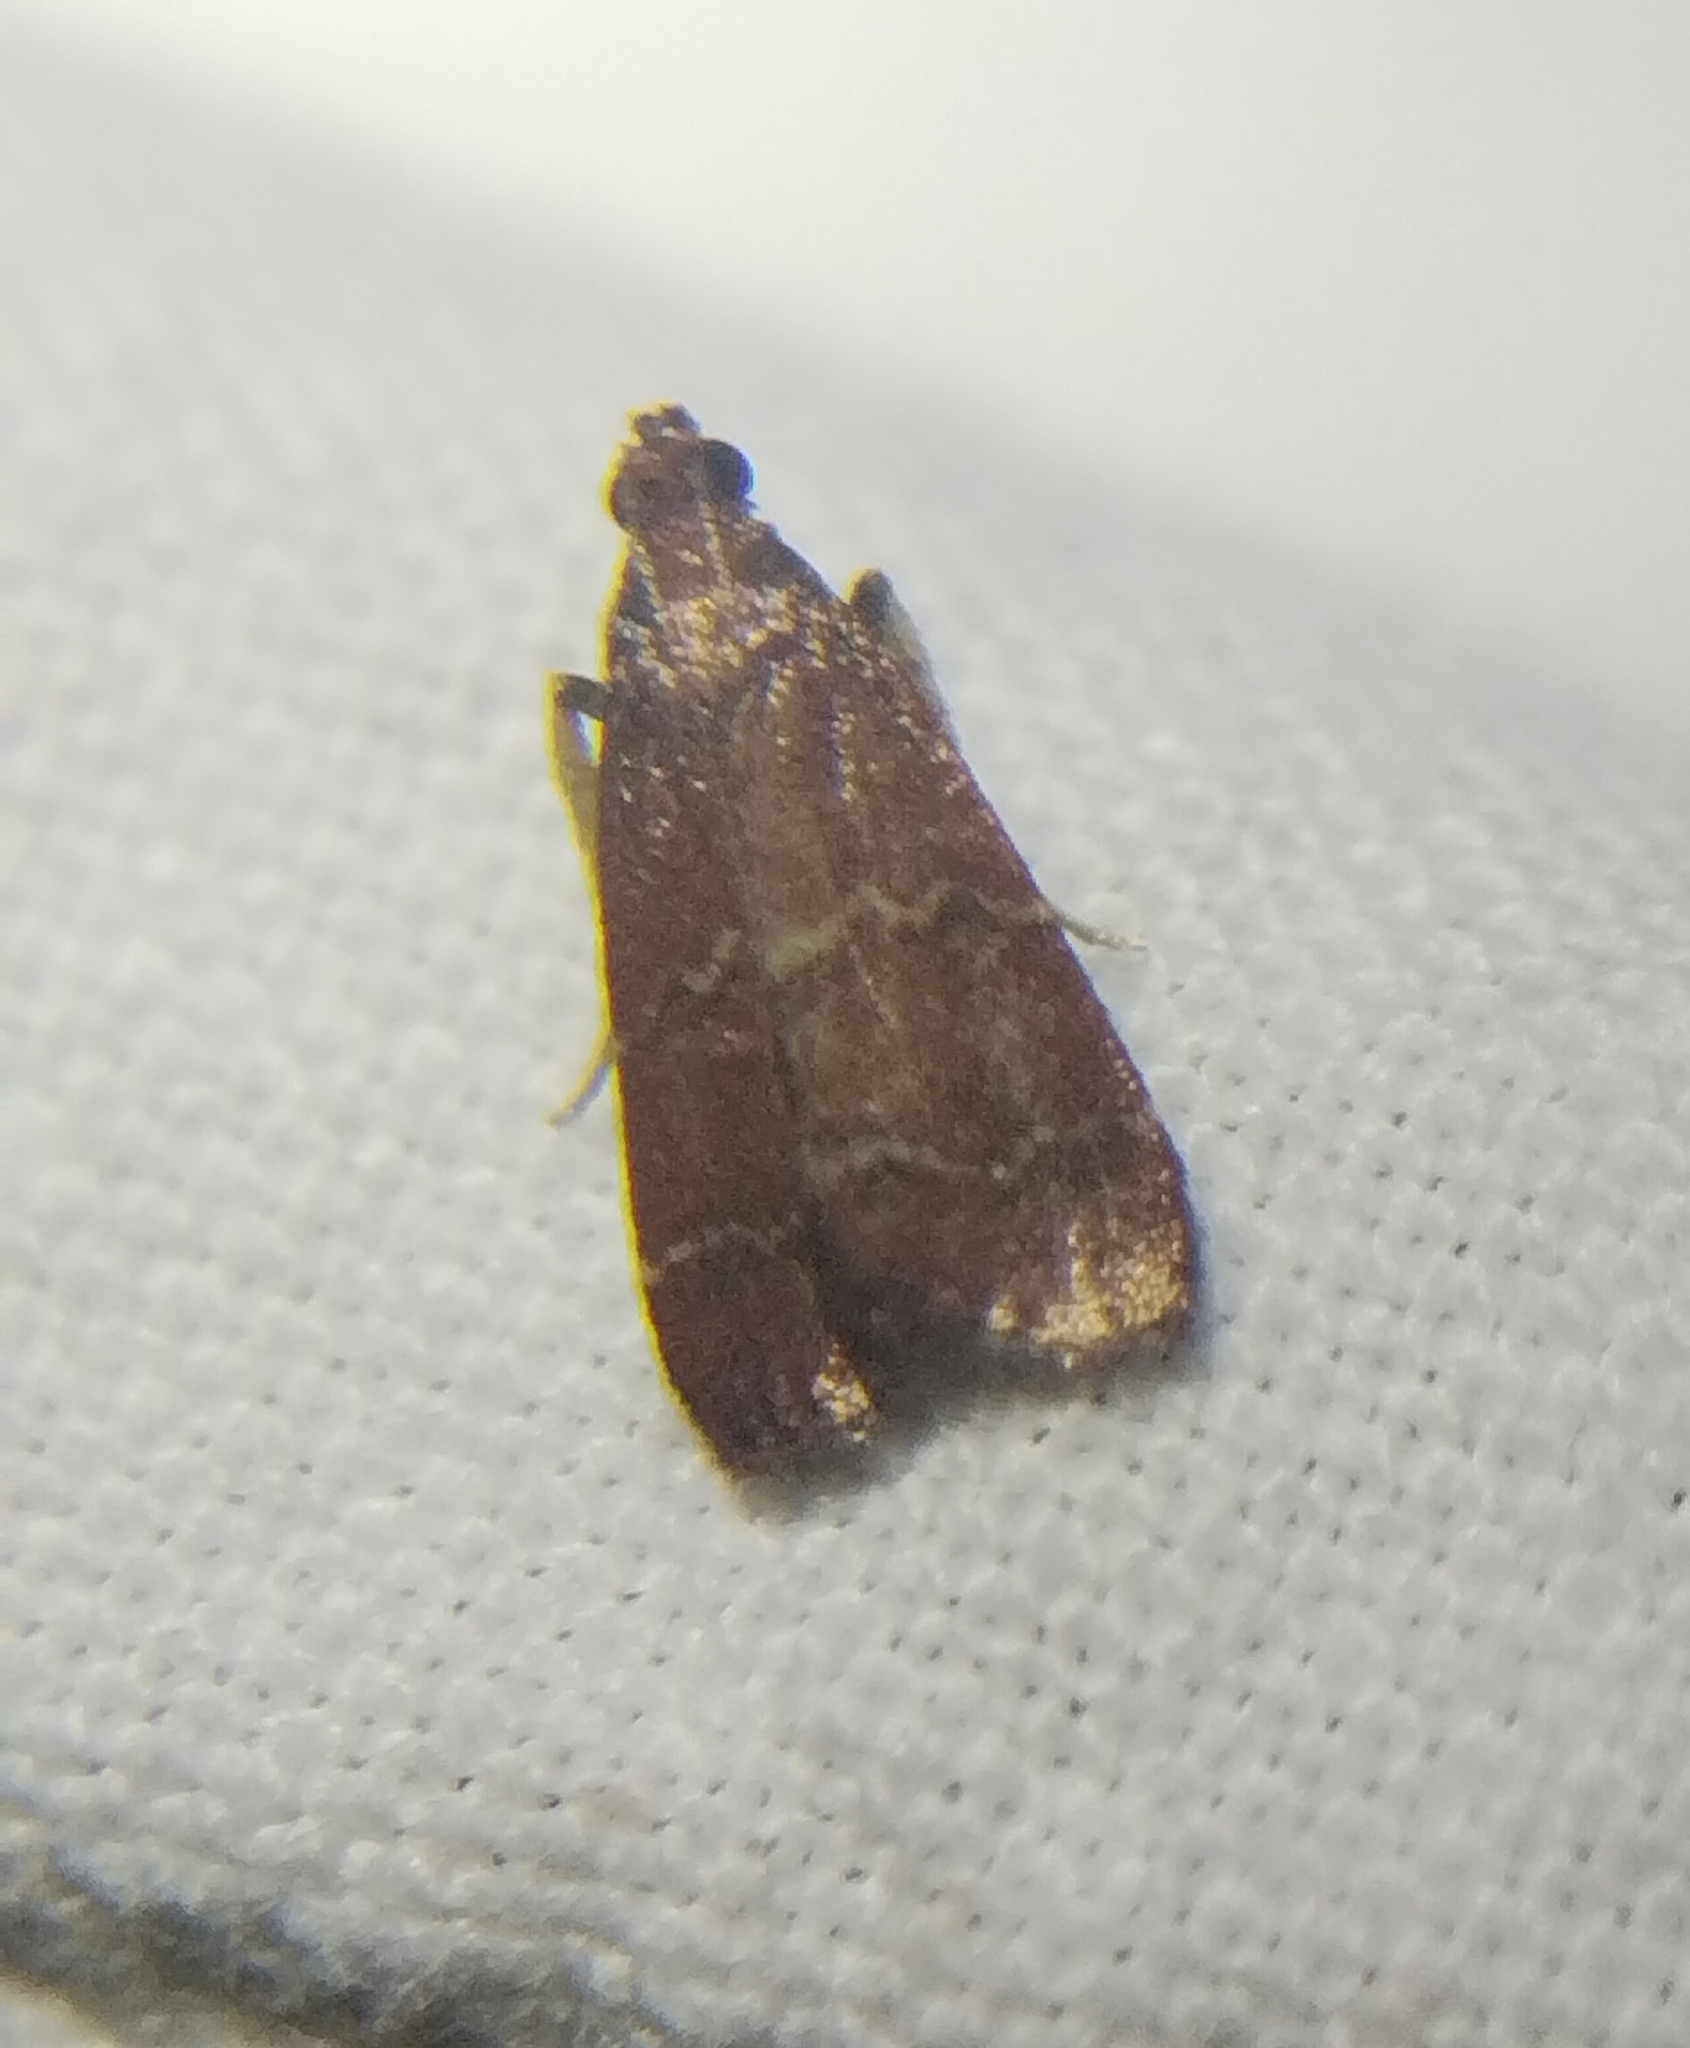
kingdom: Animalia
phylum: Arthropoda
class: Insecta
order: Lepidoptera
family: Pyralidae
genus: Arta
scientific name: Arta
